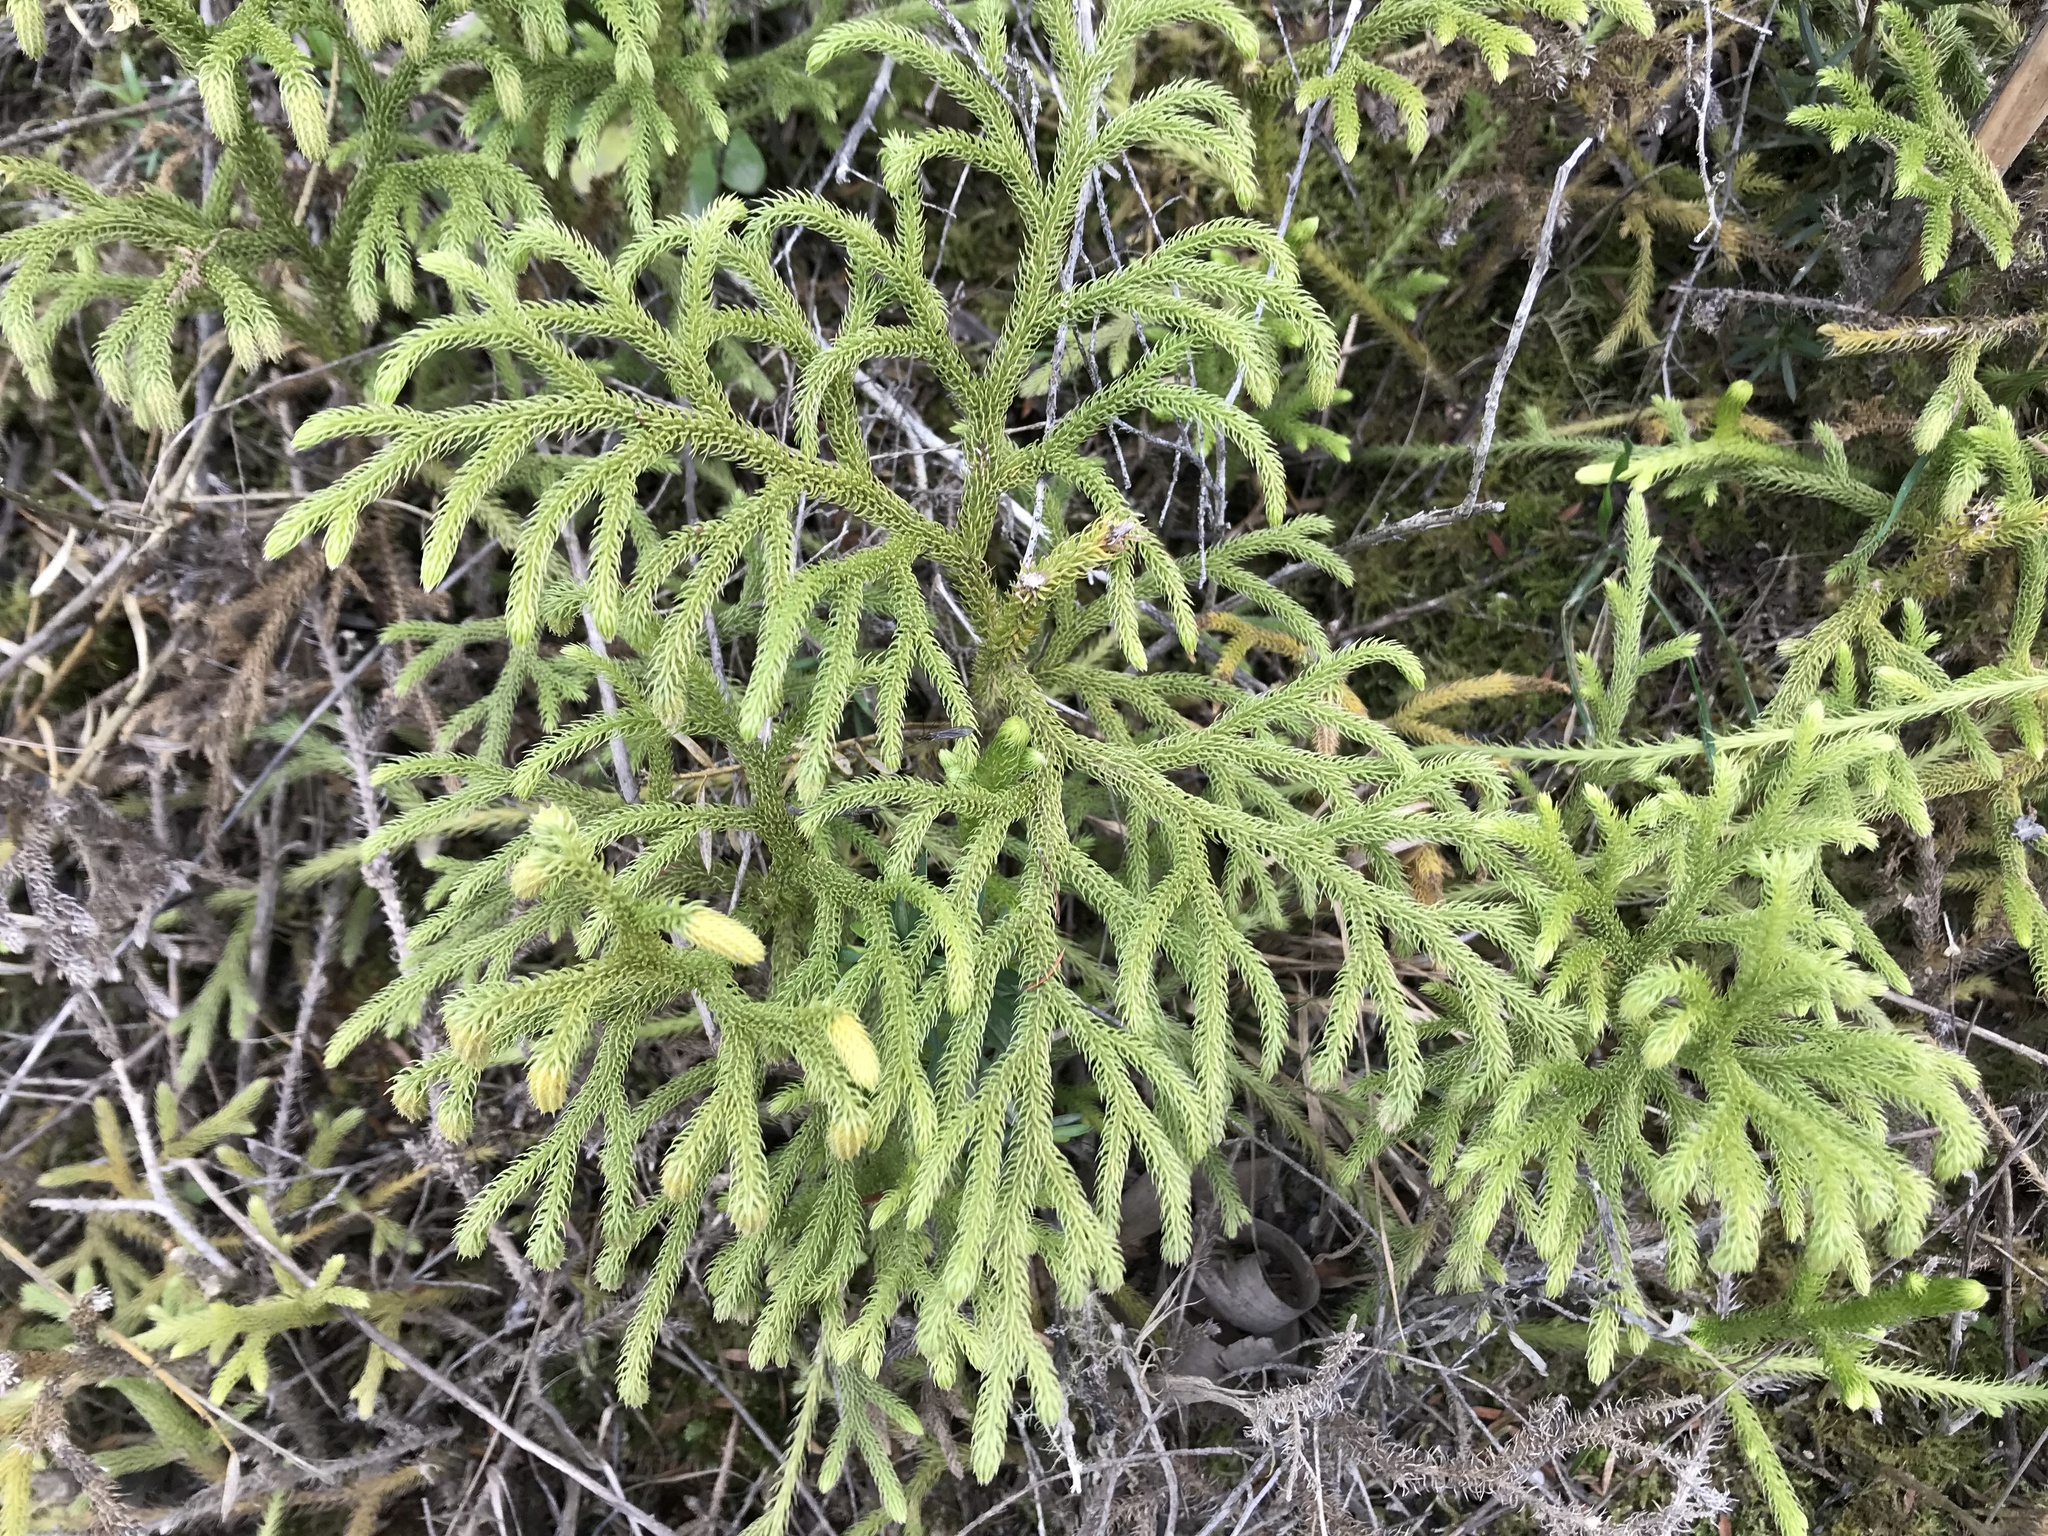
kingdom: Plantae
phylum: Tracheophyta
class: Lycopodiopsida
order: Lycopodiales
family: Lycopodiaceae
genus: Palhinhaea
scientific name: Palhinhaea cernua
